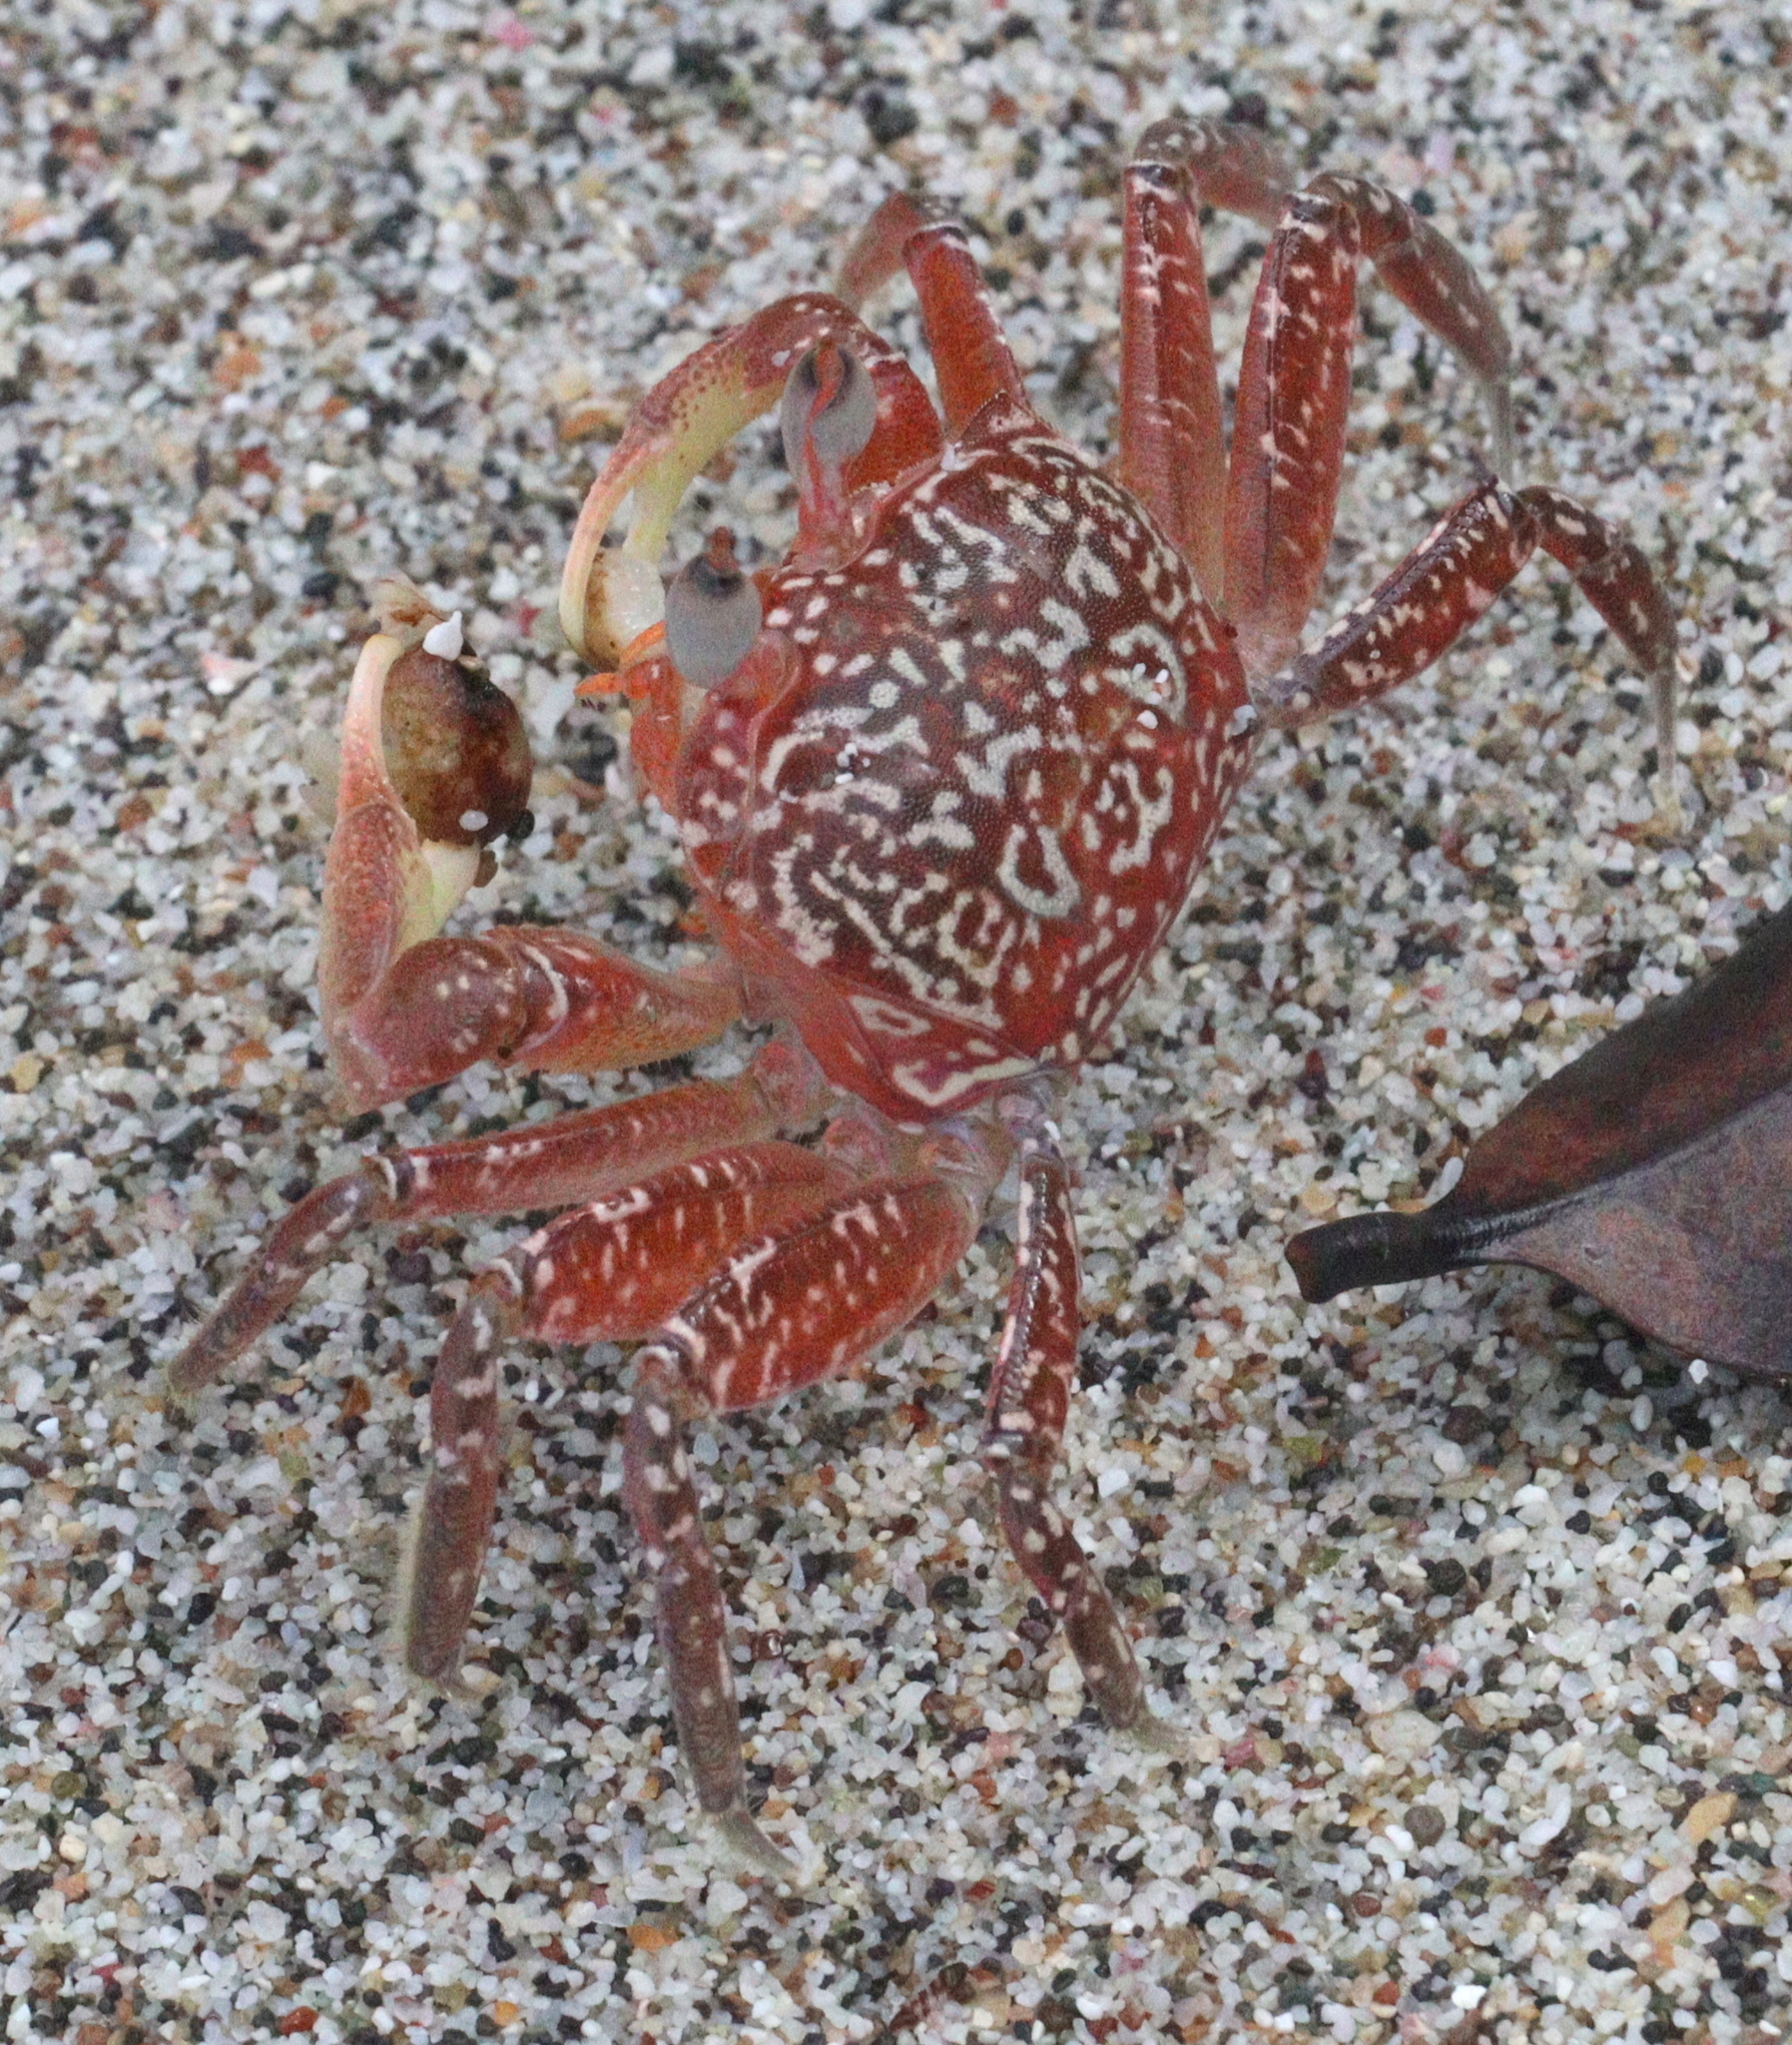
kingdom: Animalia
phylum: Arthropoda
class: Malacostraca
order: Decapoda
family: Ocypodidae
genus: Ocypode
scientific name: Ocypode gaudichaudii
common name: Pacific ghost crab
